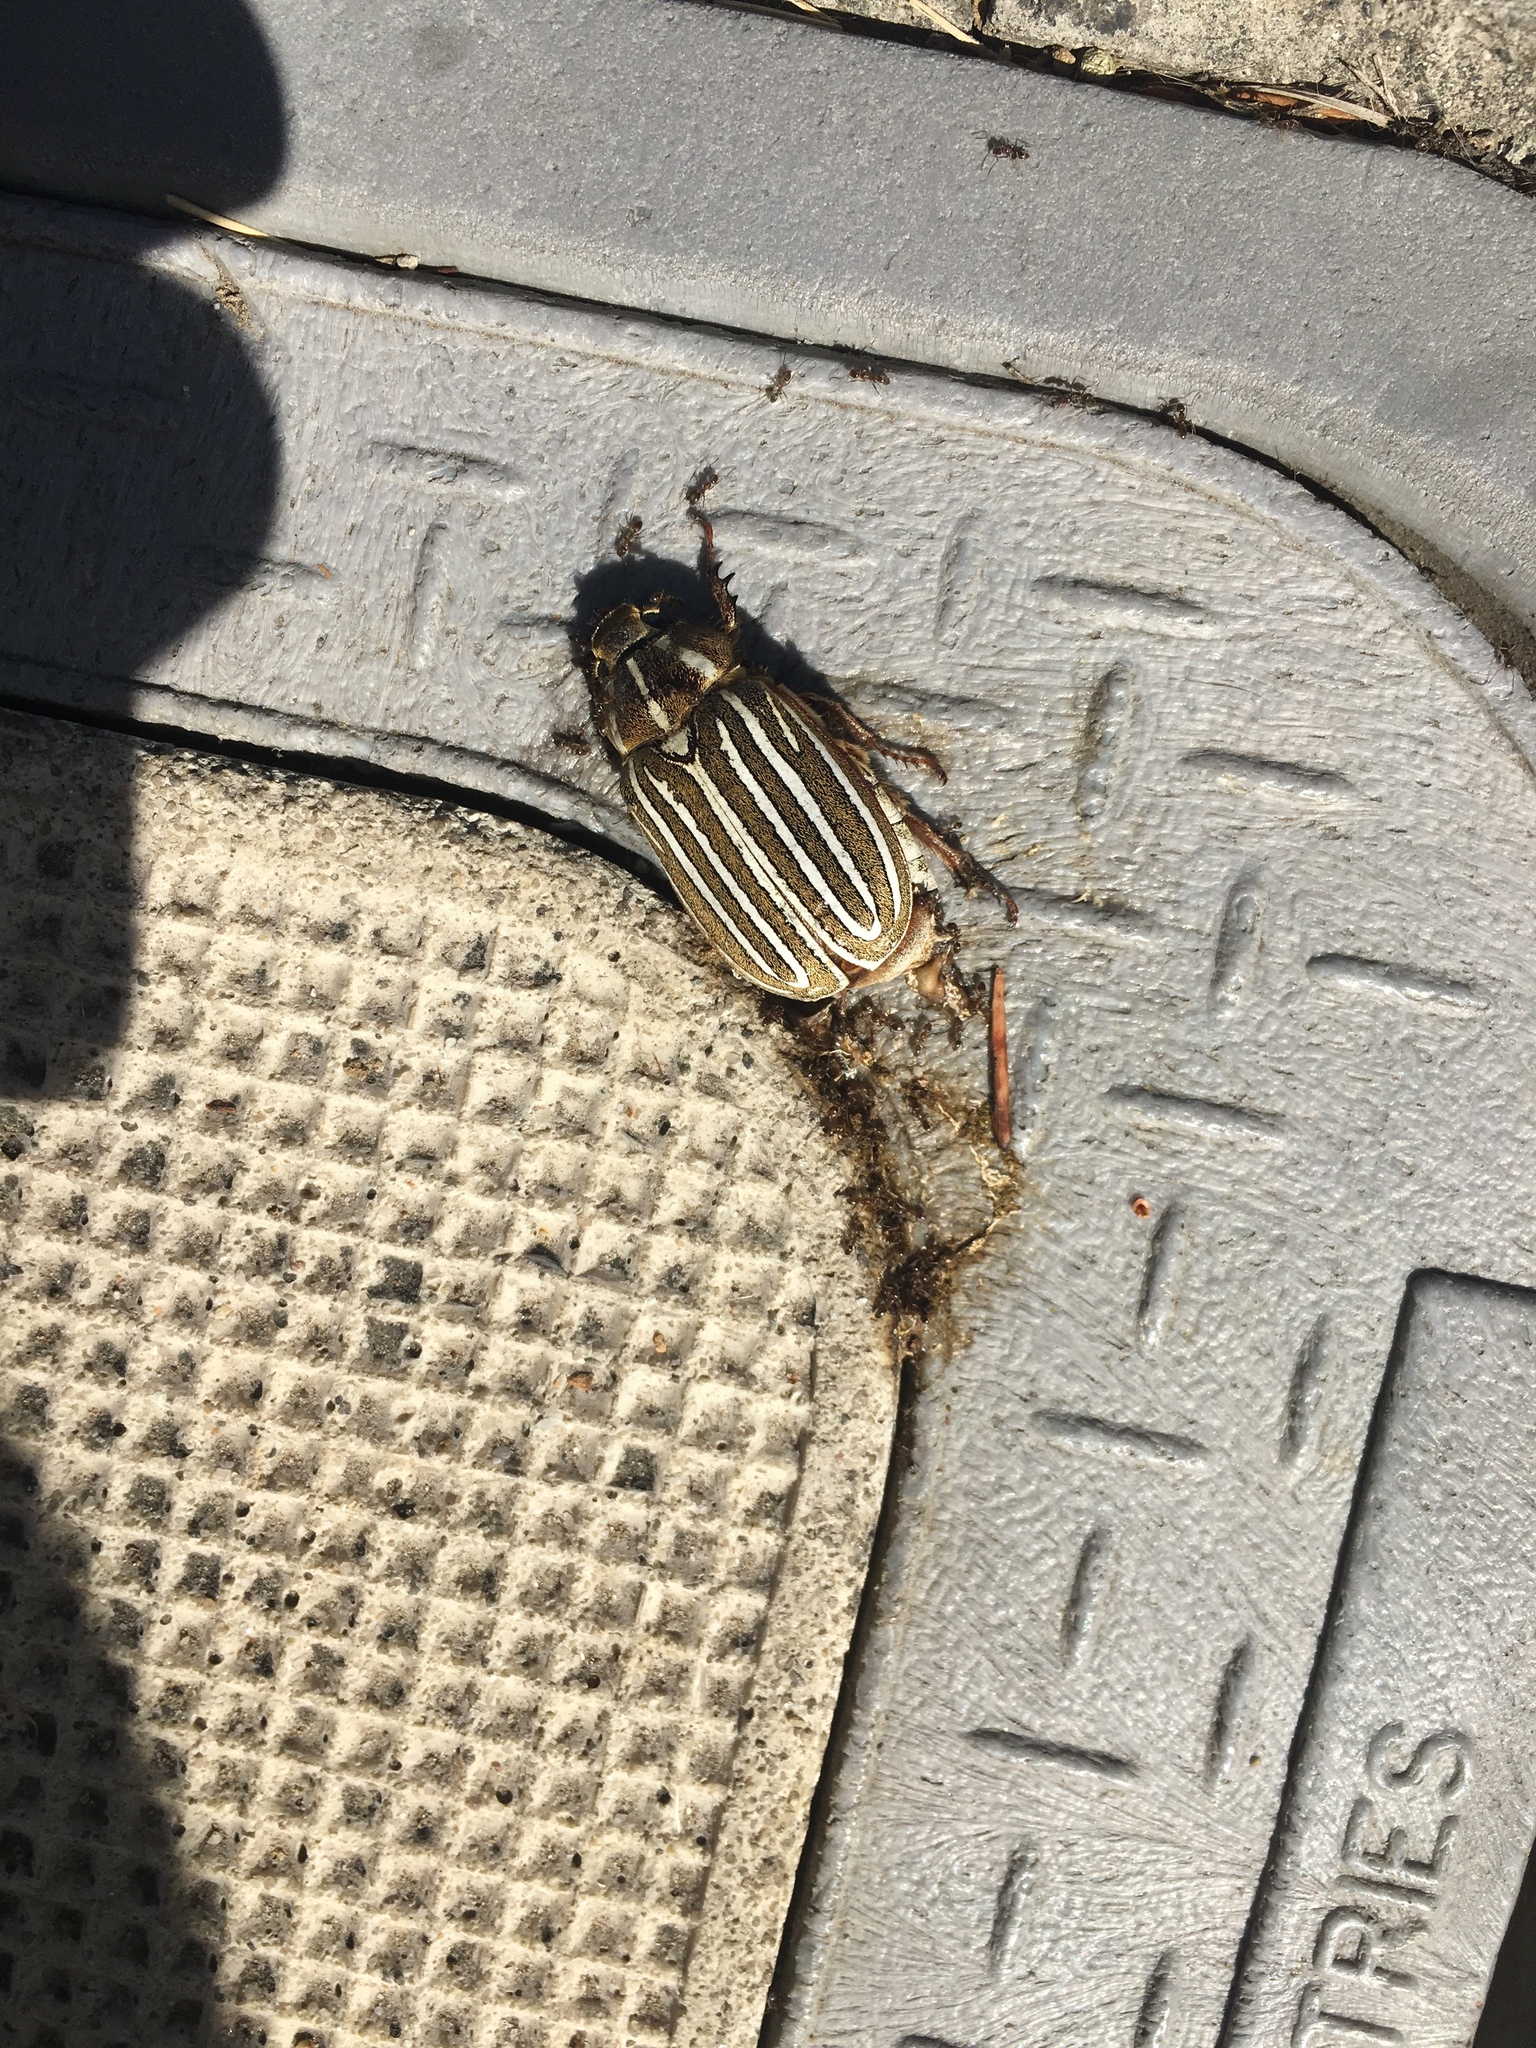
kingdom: Animalia
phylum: Arthropoda
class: Insecta
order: Coleoptera
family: Scarabaeidae
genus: Polyphylla
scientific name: Polyphylla decemlineata
